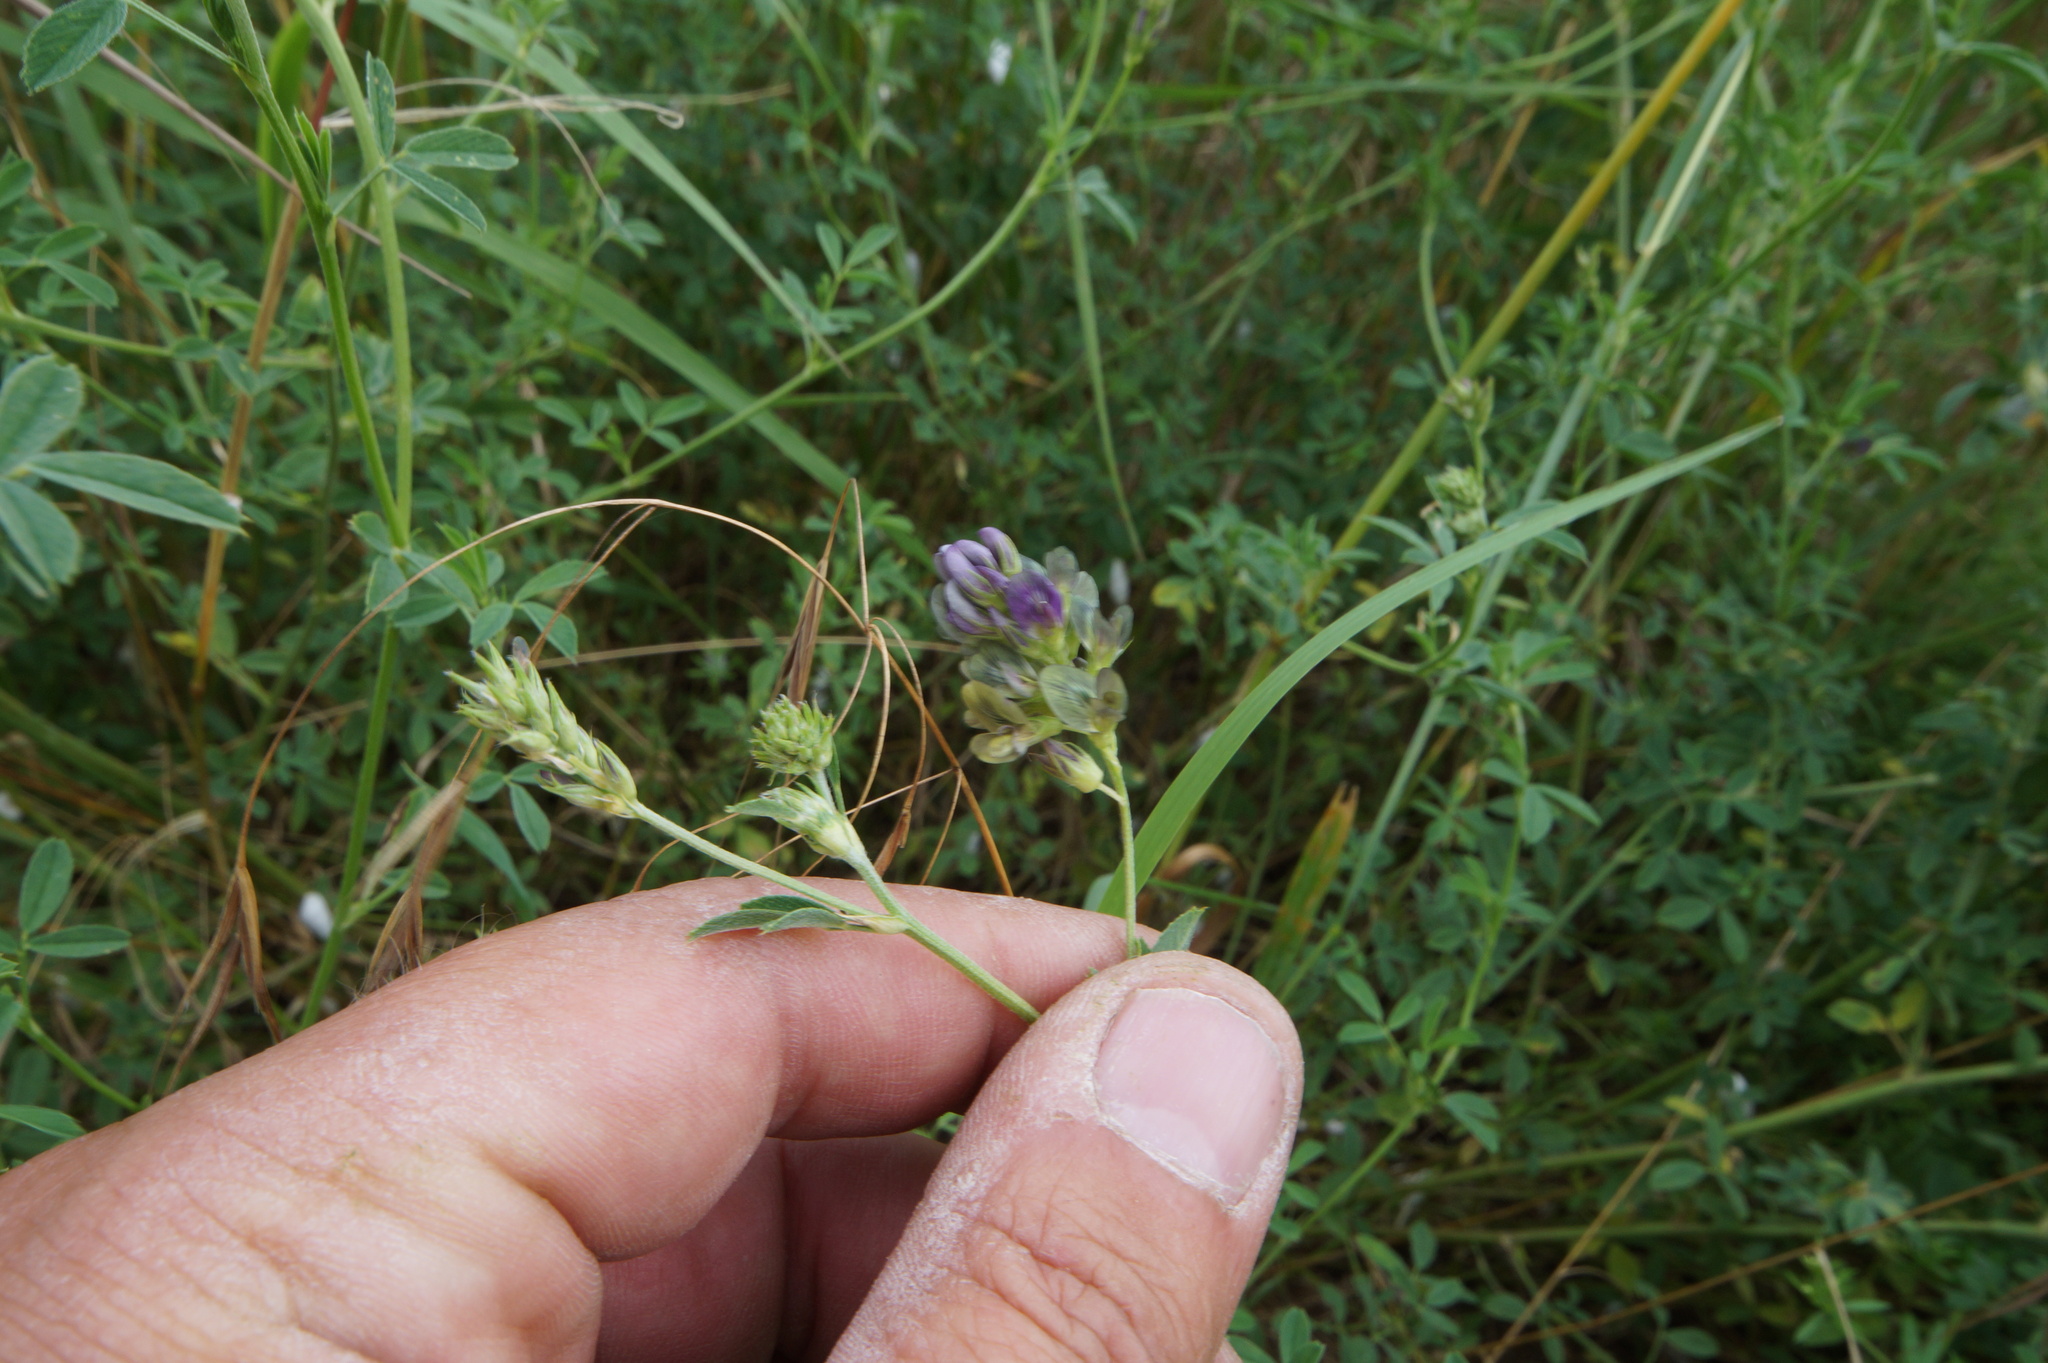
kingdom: Plantae
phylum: Tracheophyta
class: Magnoliopsida
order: Fabales
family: Fabaceae
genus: Medicago
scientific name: Medicago varia
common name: Sand lucerne
